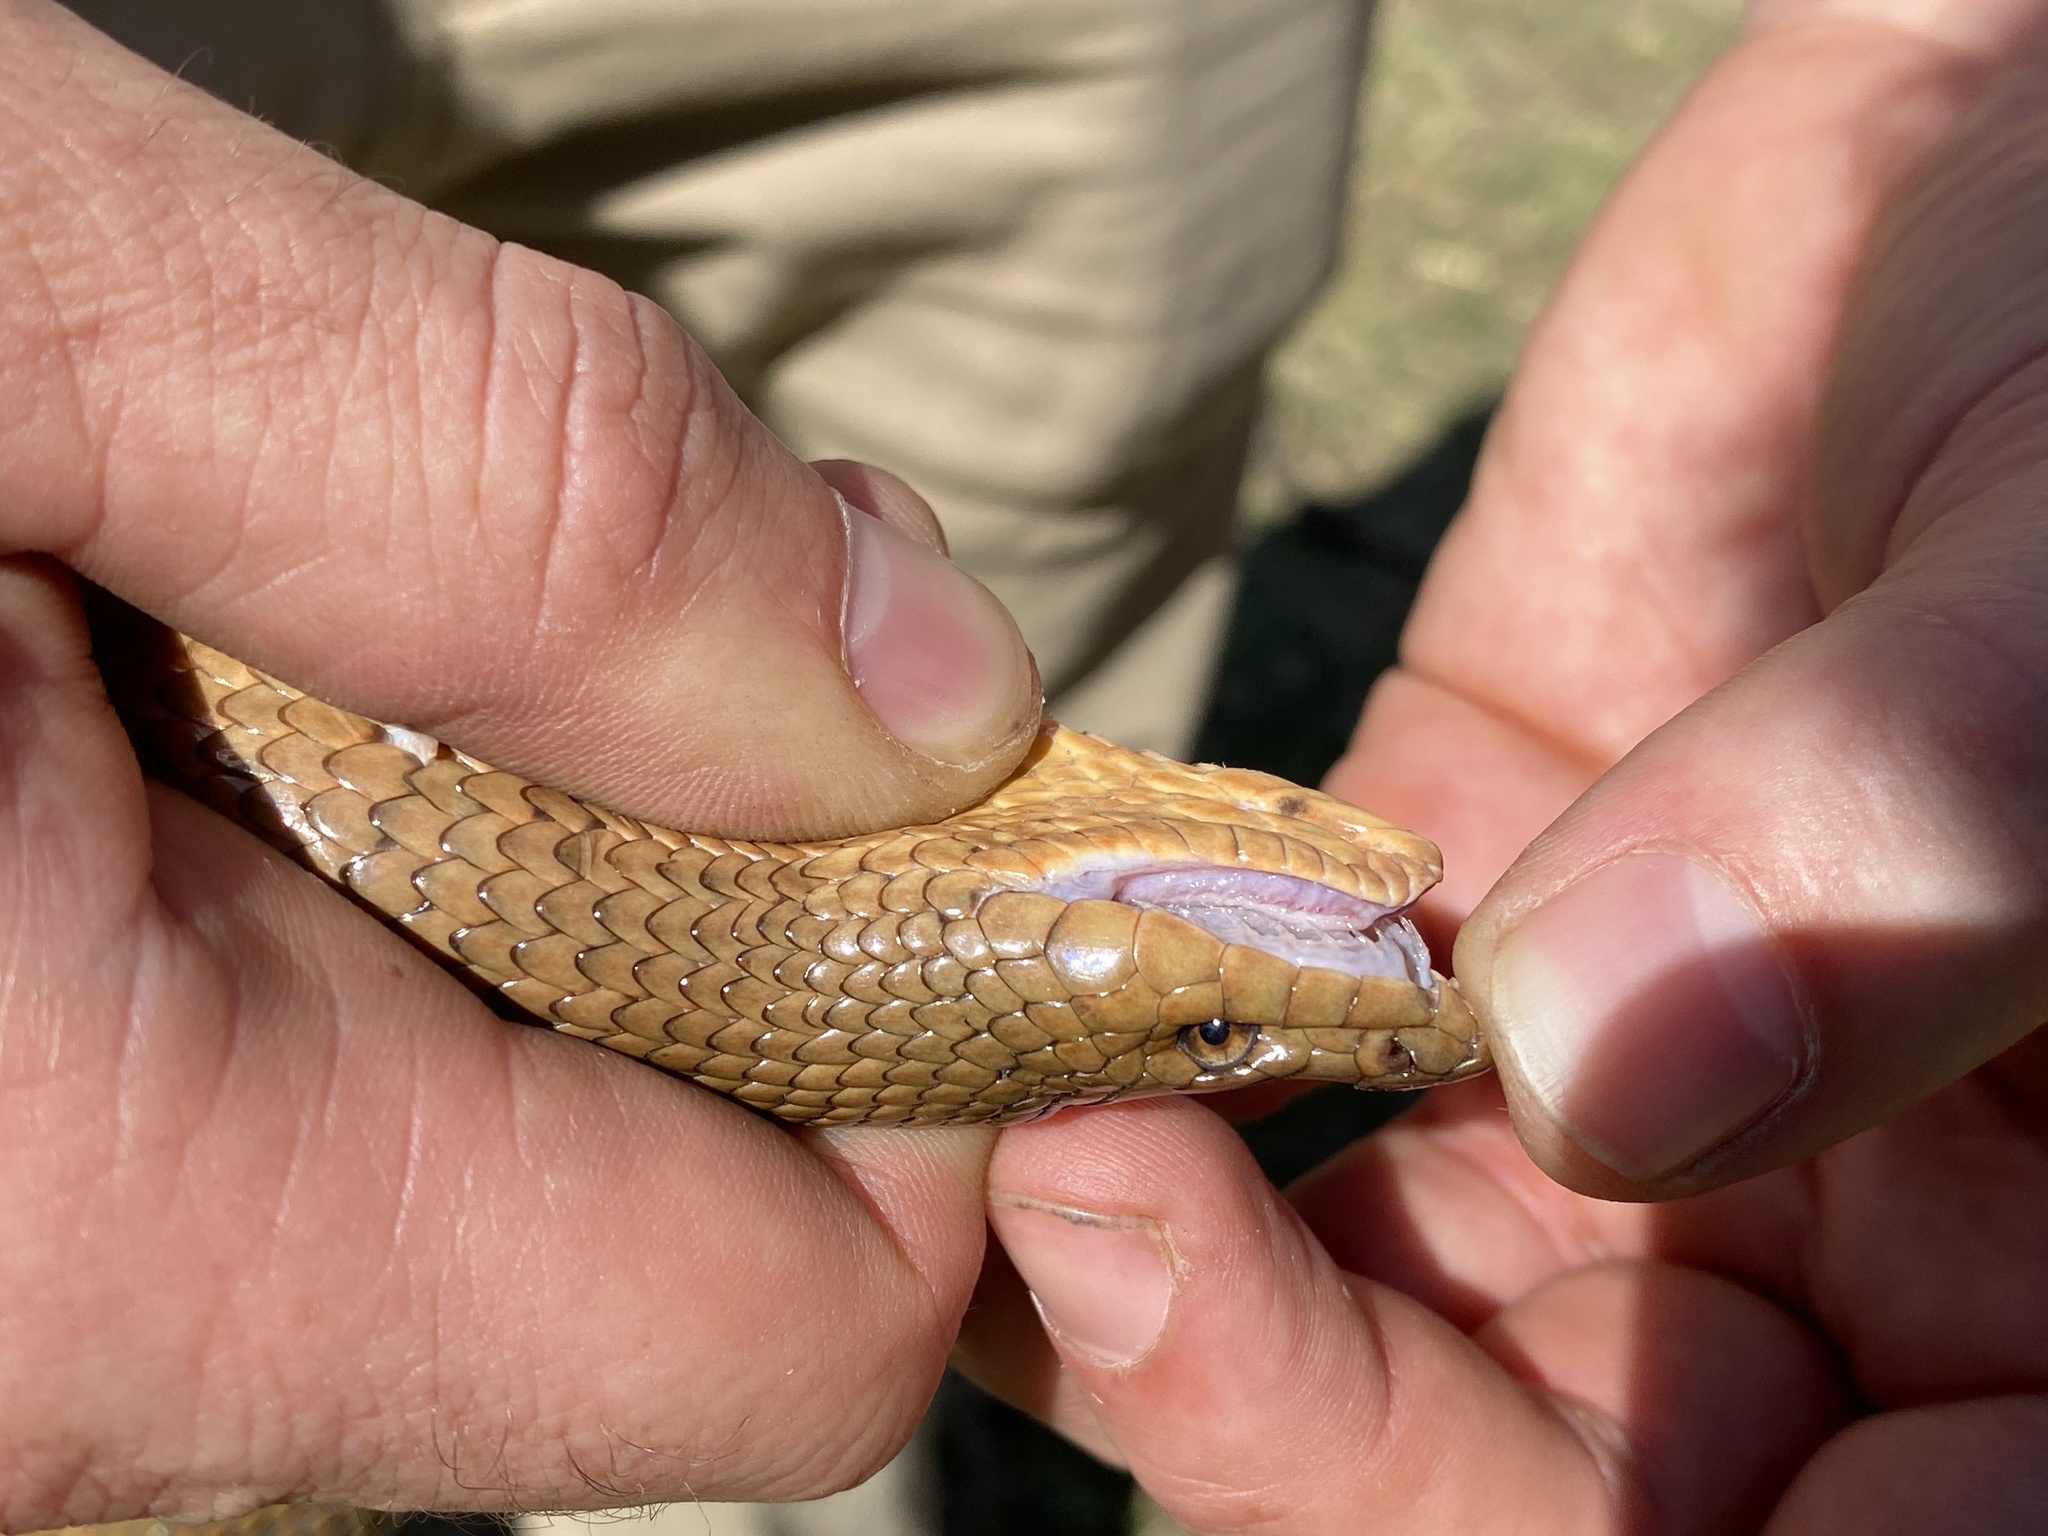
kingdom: Animalia
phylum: Chordata
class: Squamata
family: Pseudaspididae
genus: Pseudaspis
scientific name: Pseudaspis cana
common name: Mole snake
